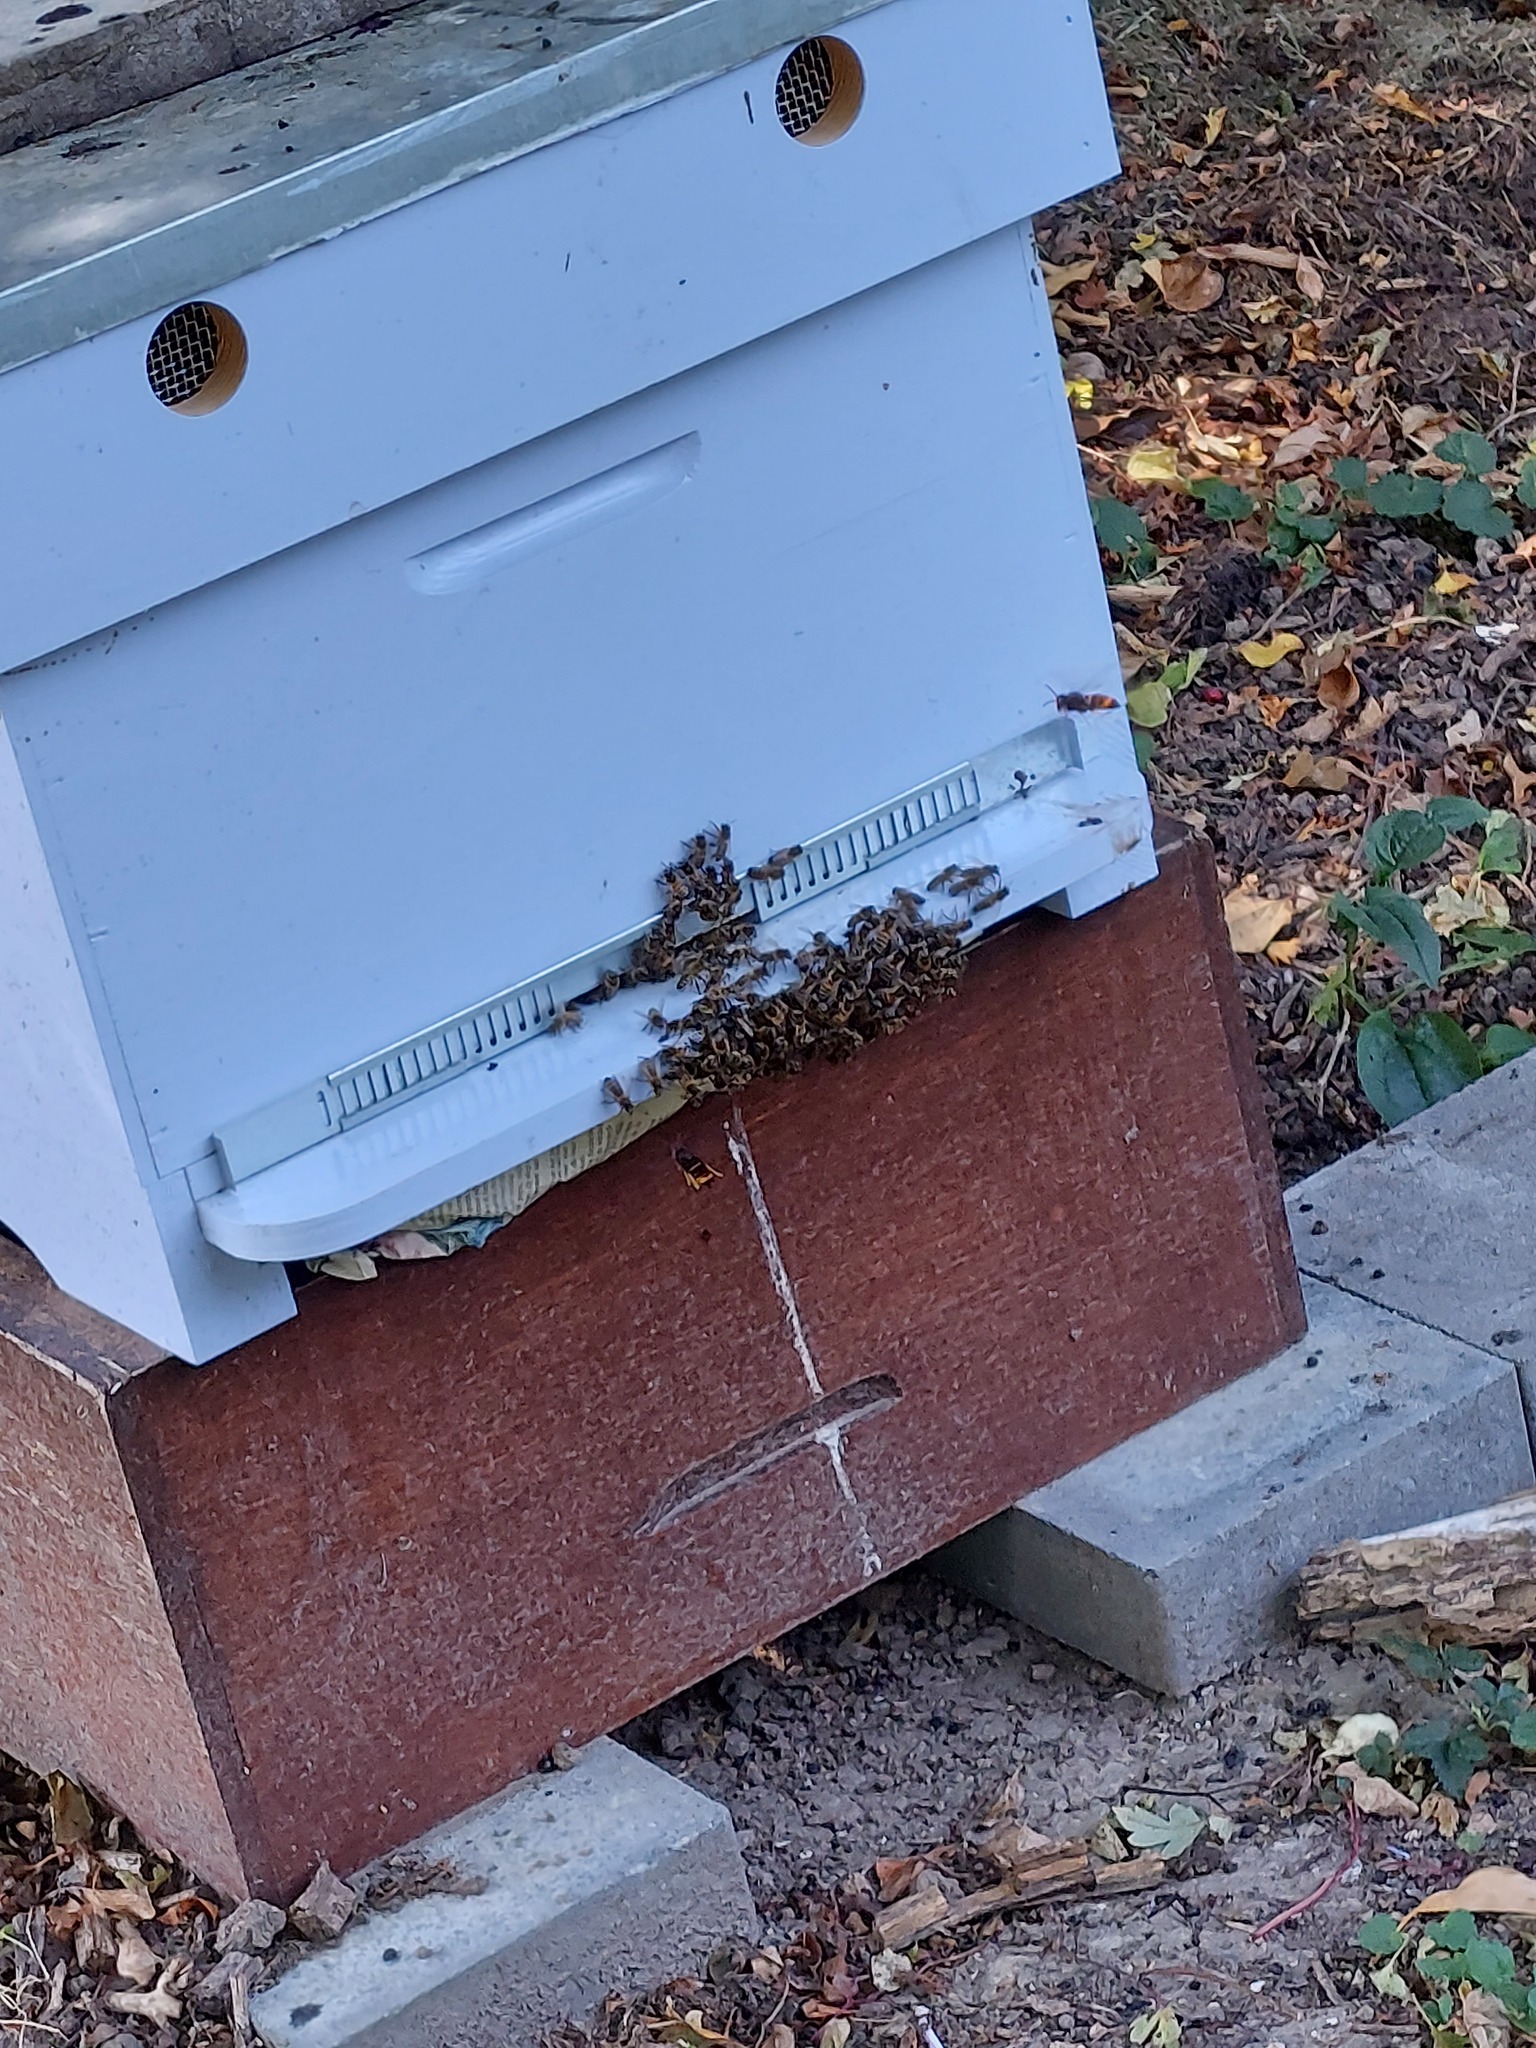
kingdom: Animalia
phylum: Arthropoda
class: Insecta
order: Hymenoptera
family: Vespidae
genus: Vespa
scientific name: Vespa velutina
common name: Asian hornet
